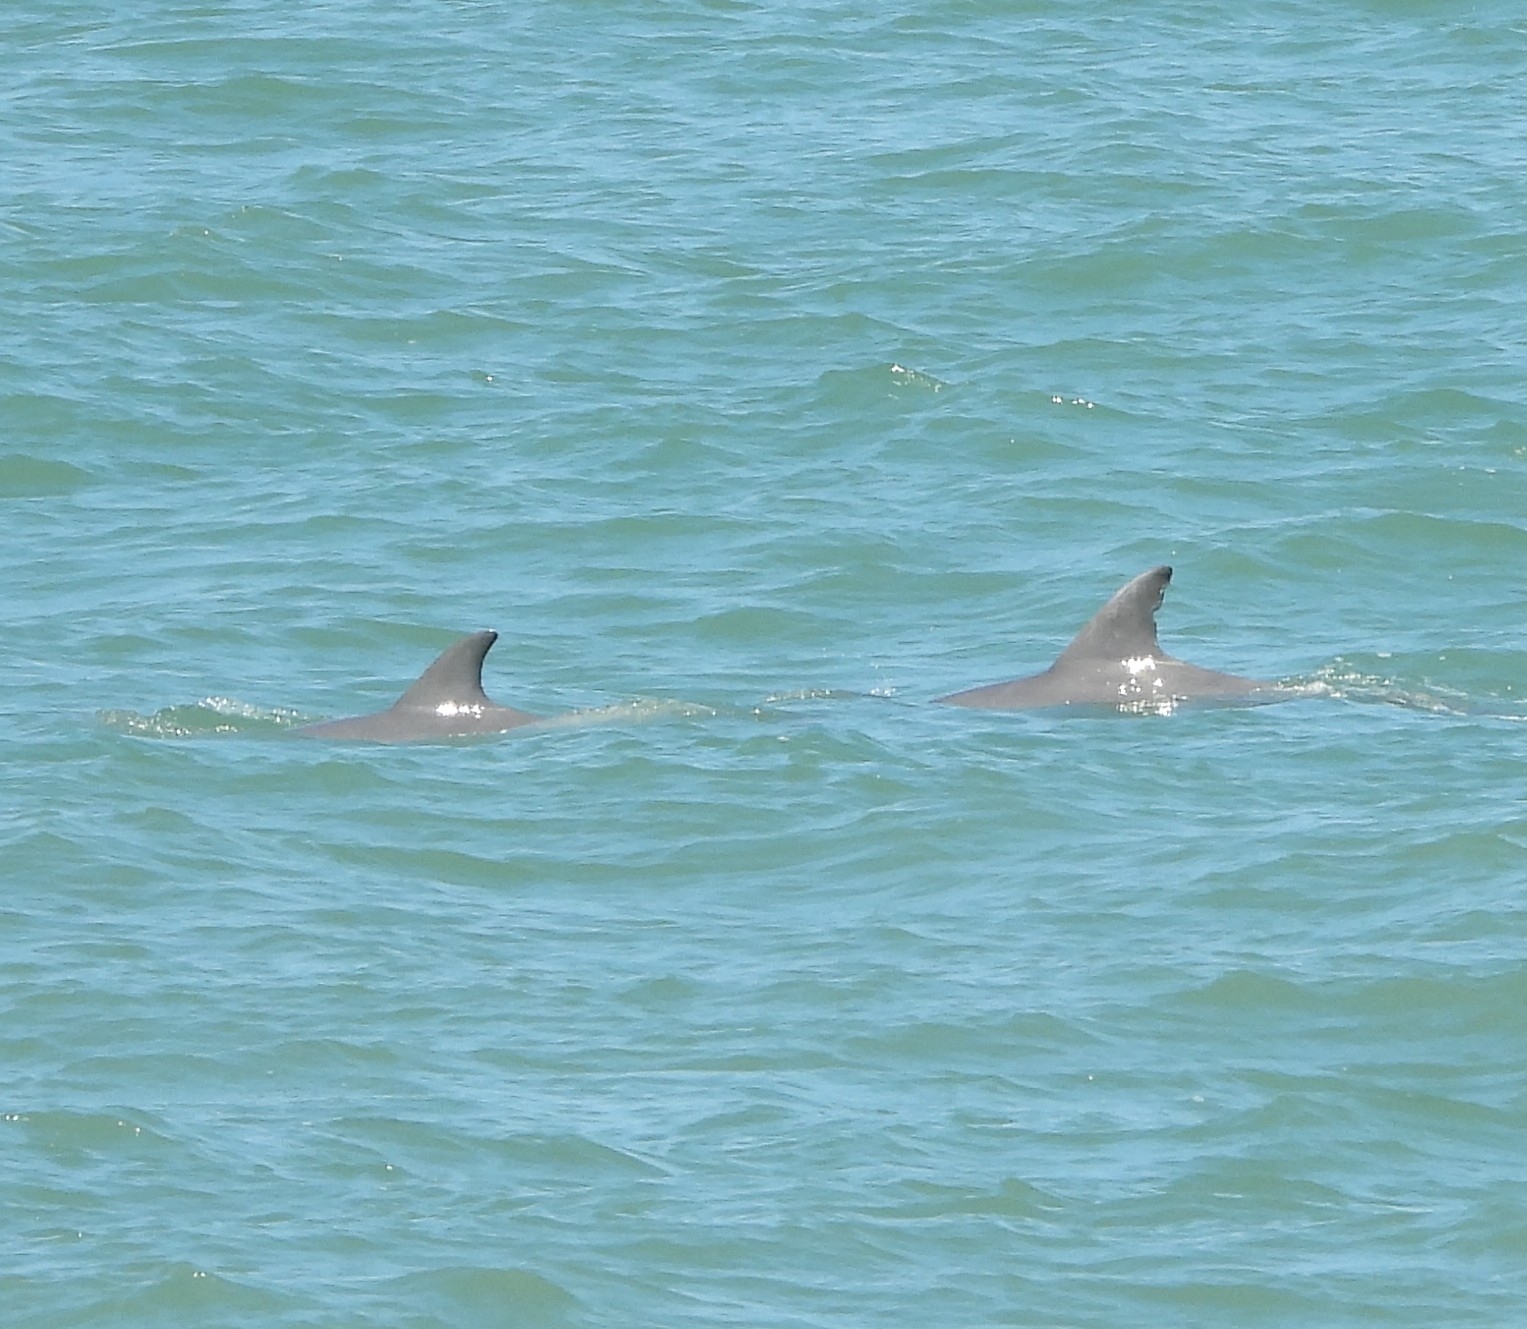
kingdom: Animalia
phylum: Chordata
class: Mammalia
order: Cetacea
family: Delphinidae
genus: Tursiops
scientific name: Tursiops truncatus
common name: Bottlenose dolphin
